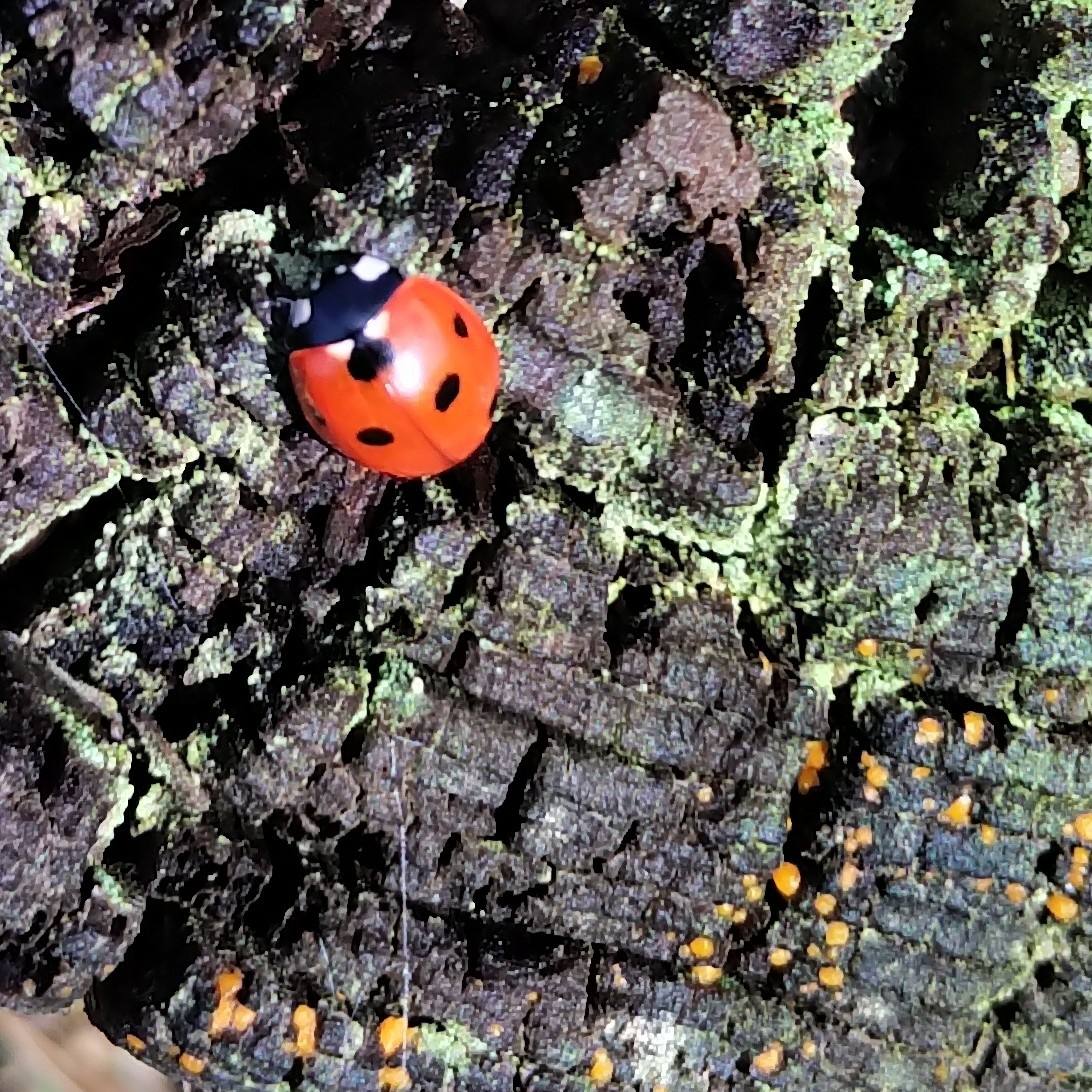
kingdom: Animalia
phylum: Arthropoda
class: Insecta
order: Coleoptera
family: Coccinellidae
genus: Coccinella
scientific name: Coccinella septempunctata
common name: Sevenspotted lady beetle
